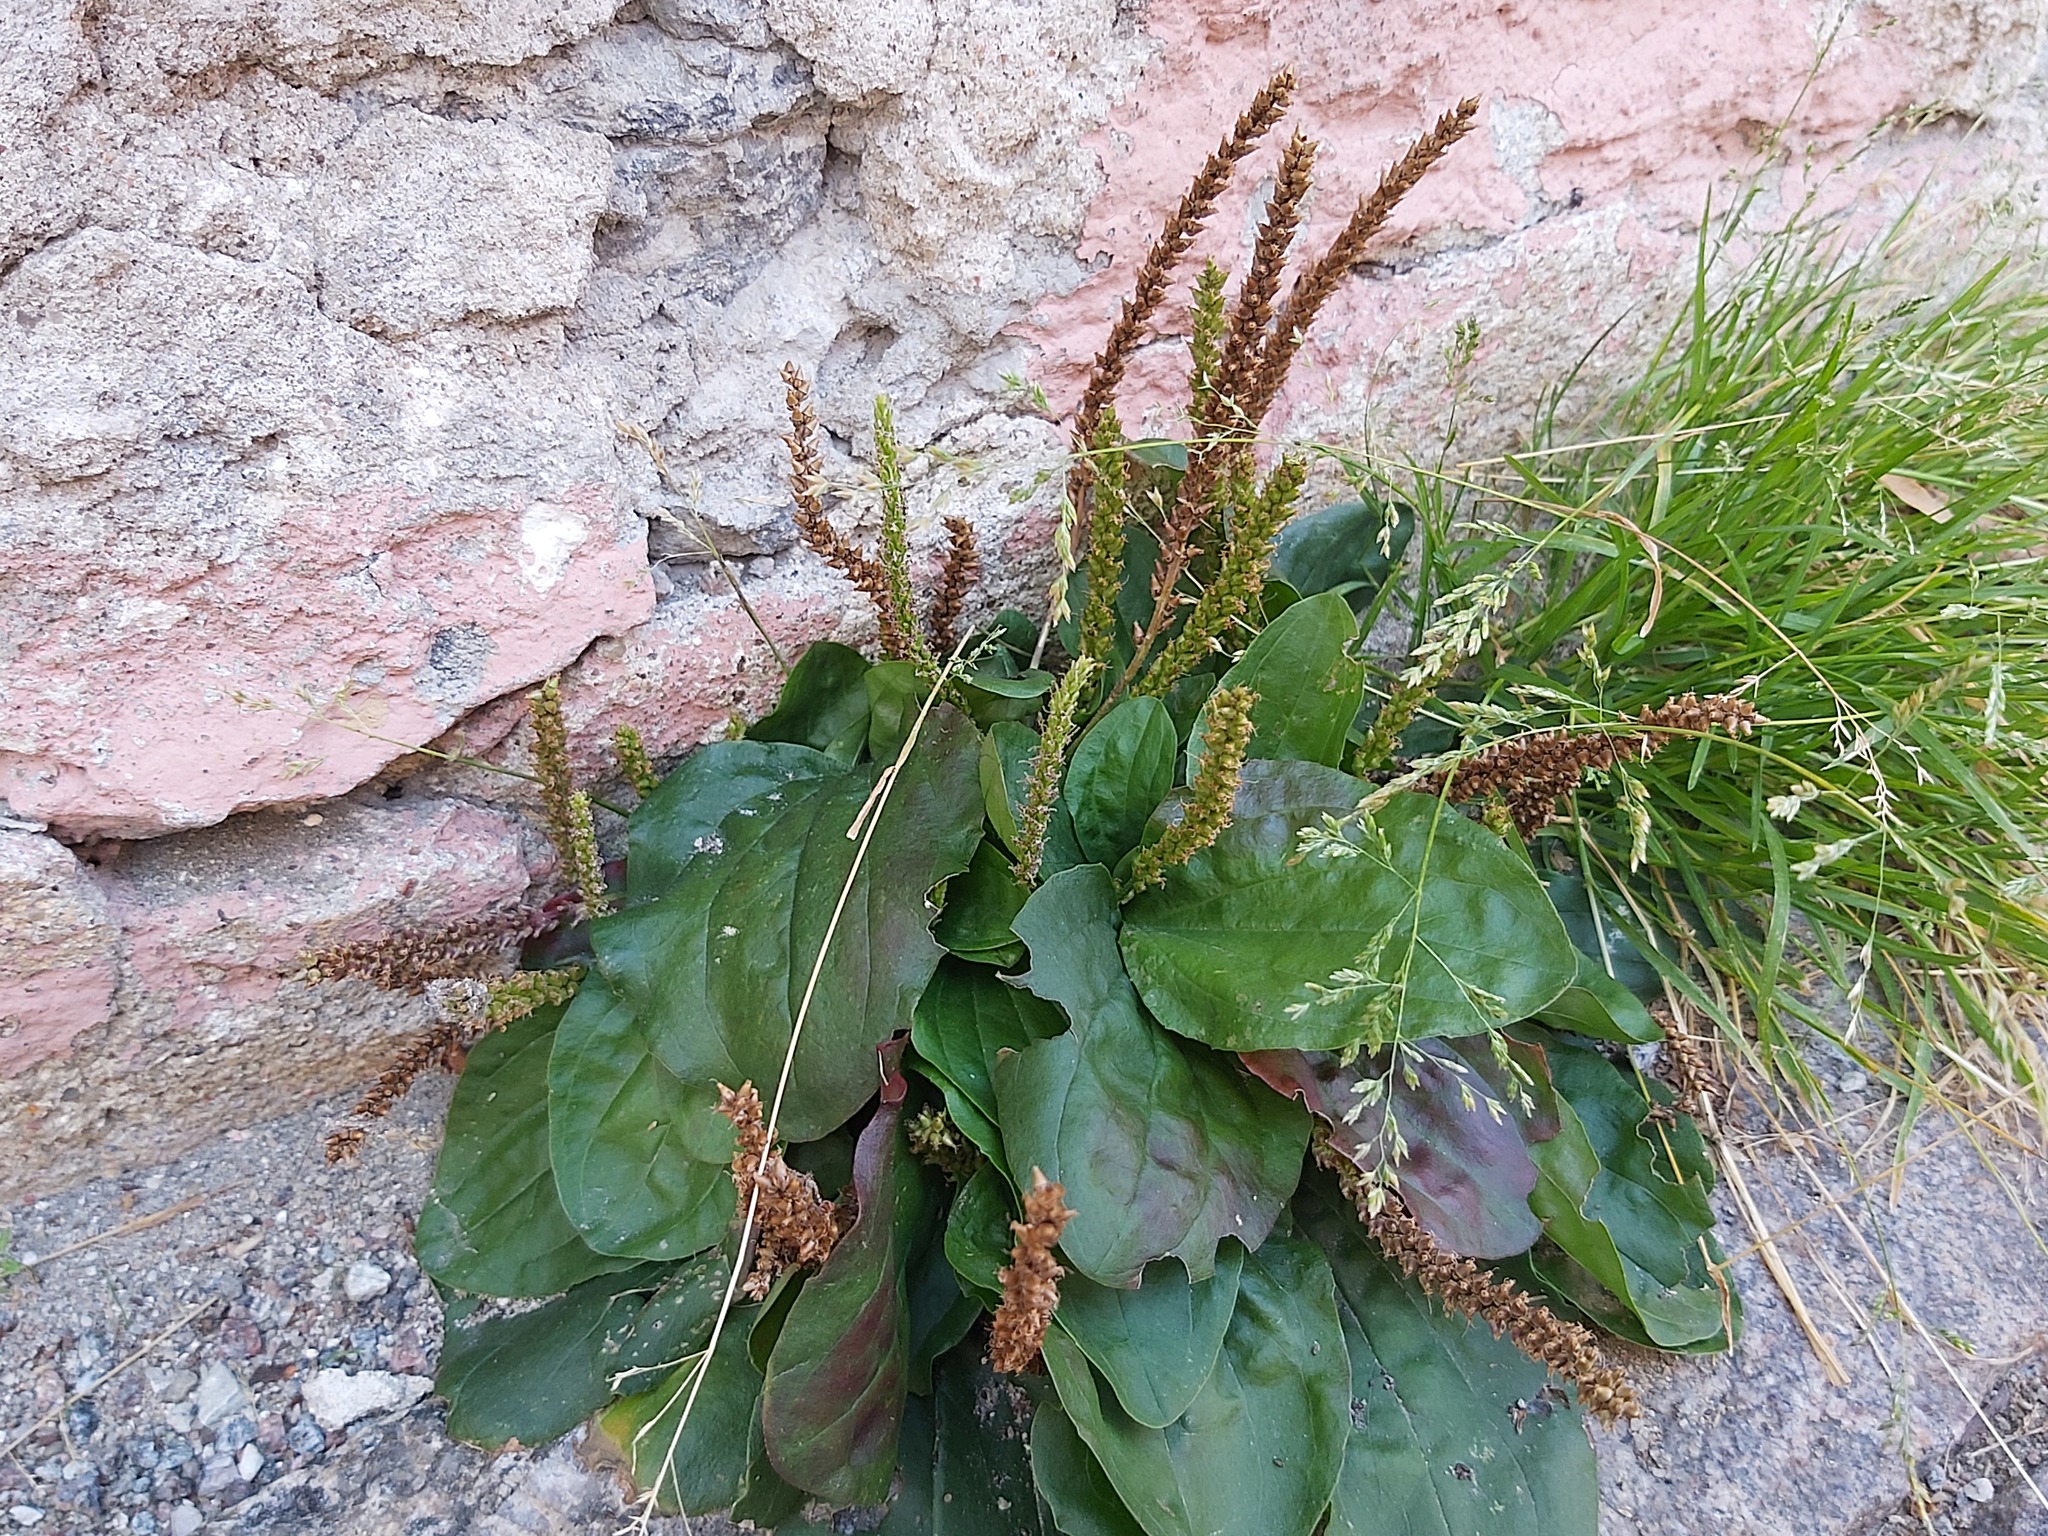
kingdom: Plantae
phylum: Tracheophyta
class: Magnoliopsida
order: Lamiales
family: Plantaginaceae
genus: Plantago
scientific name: Plantago major
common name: Common plantain
